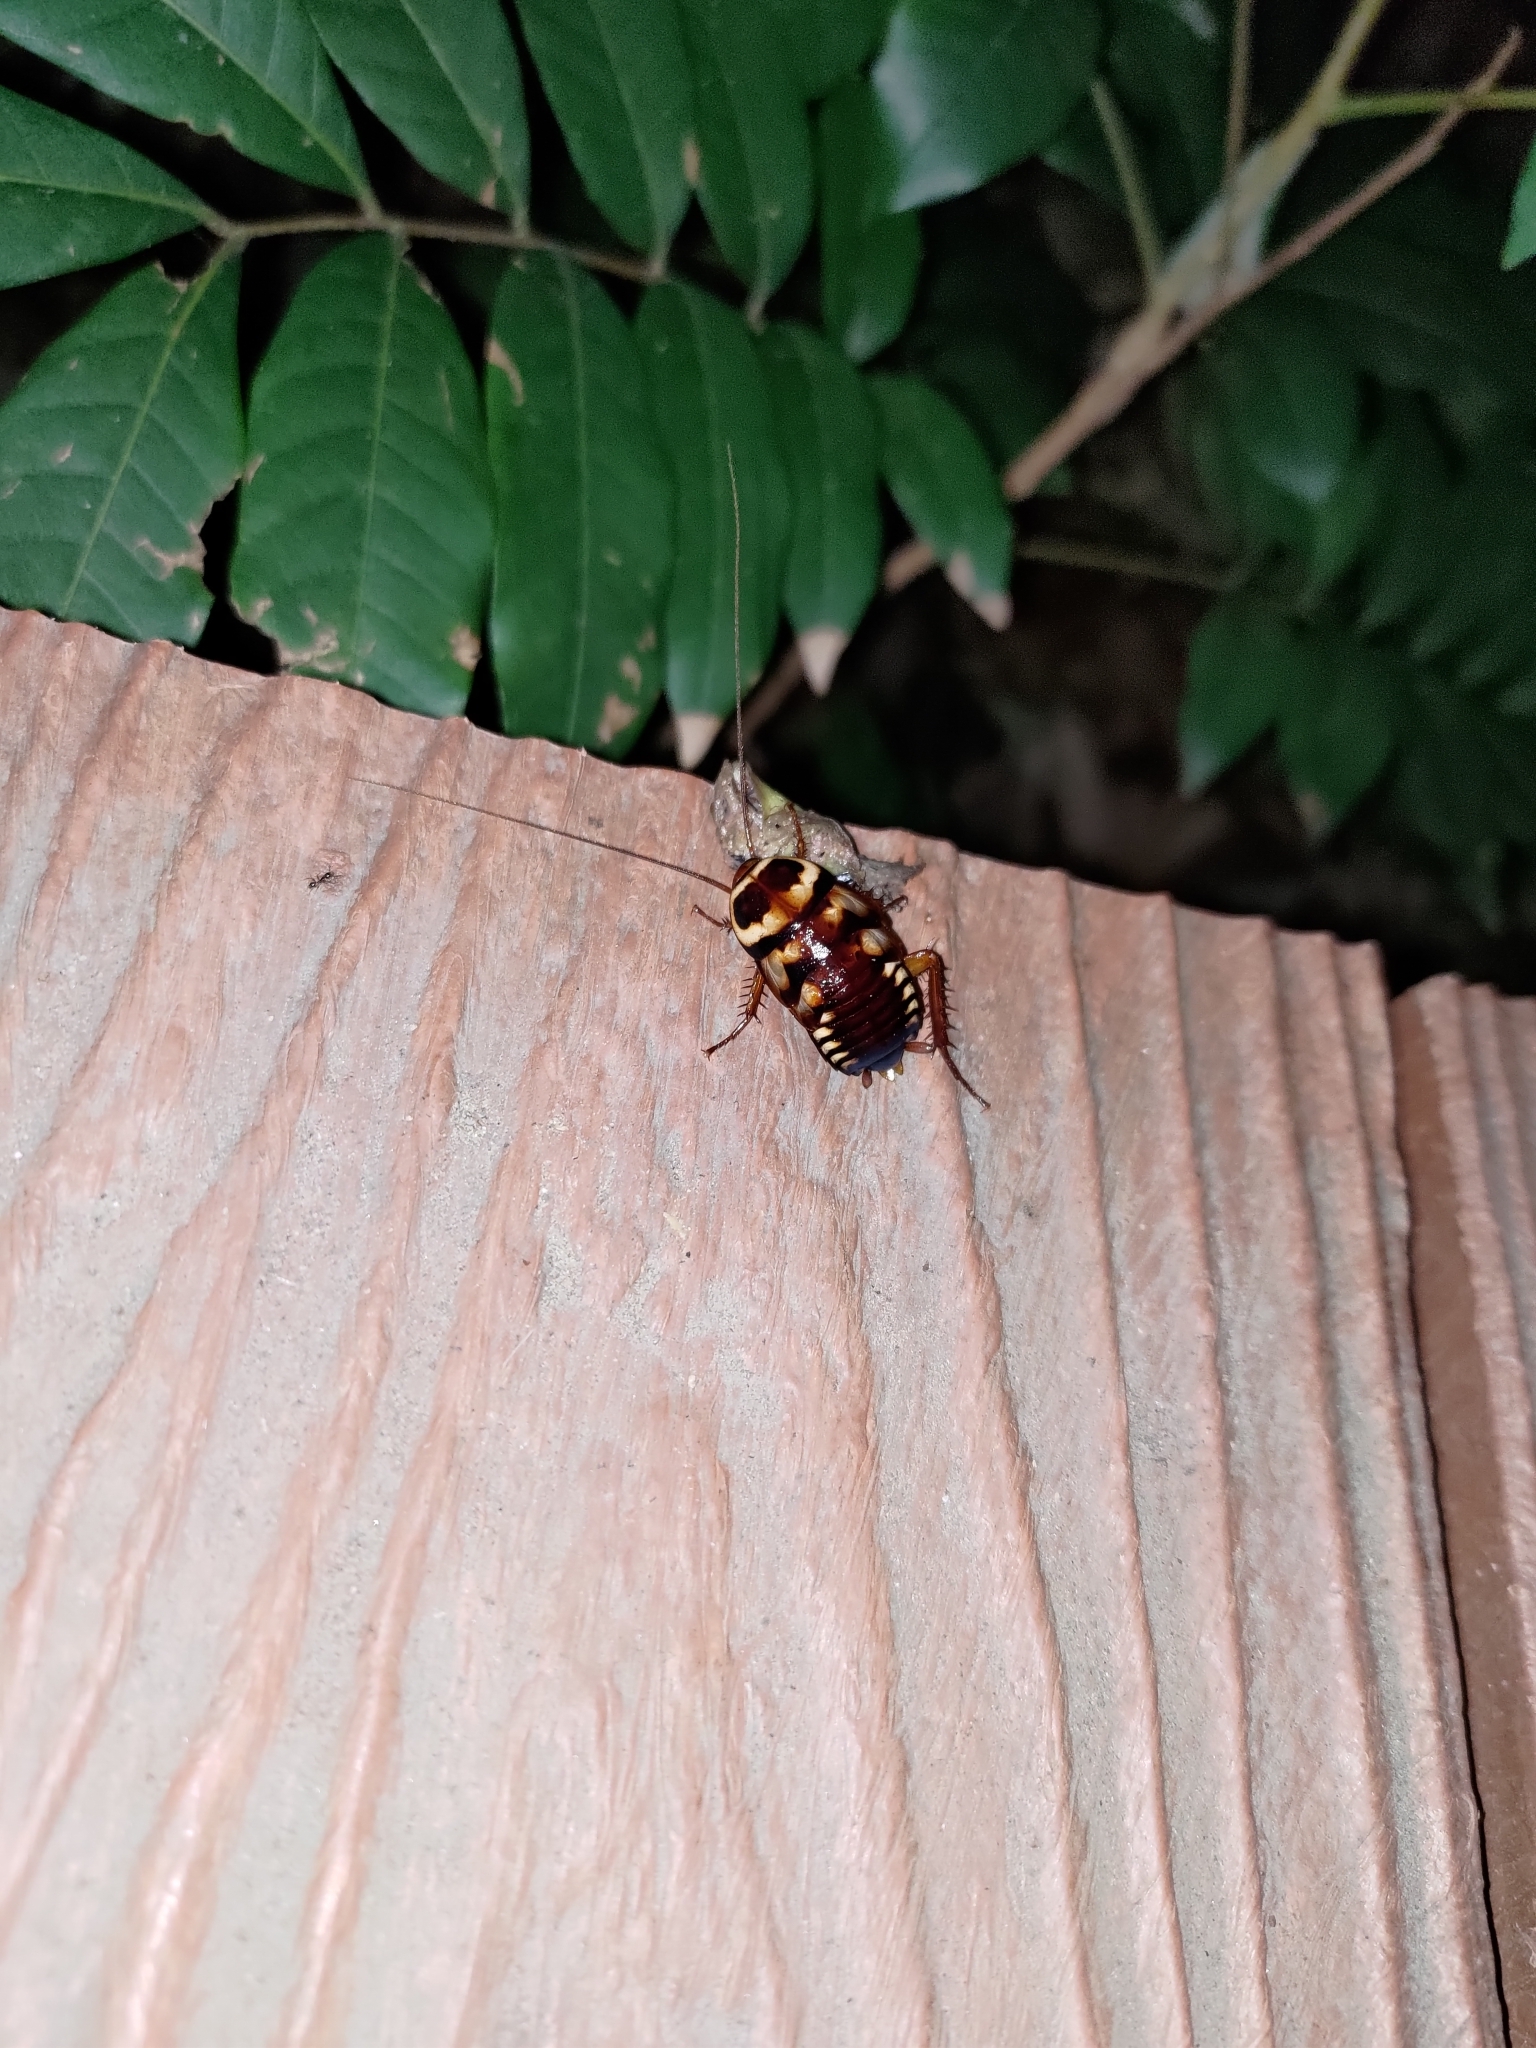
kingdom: Animalia
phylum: Arthropoda
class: Insecta
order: Blattodea
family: Blattidae
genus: Periplaneta
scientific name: Periplaneta australasiae
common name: Australian cockroach
